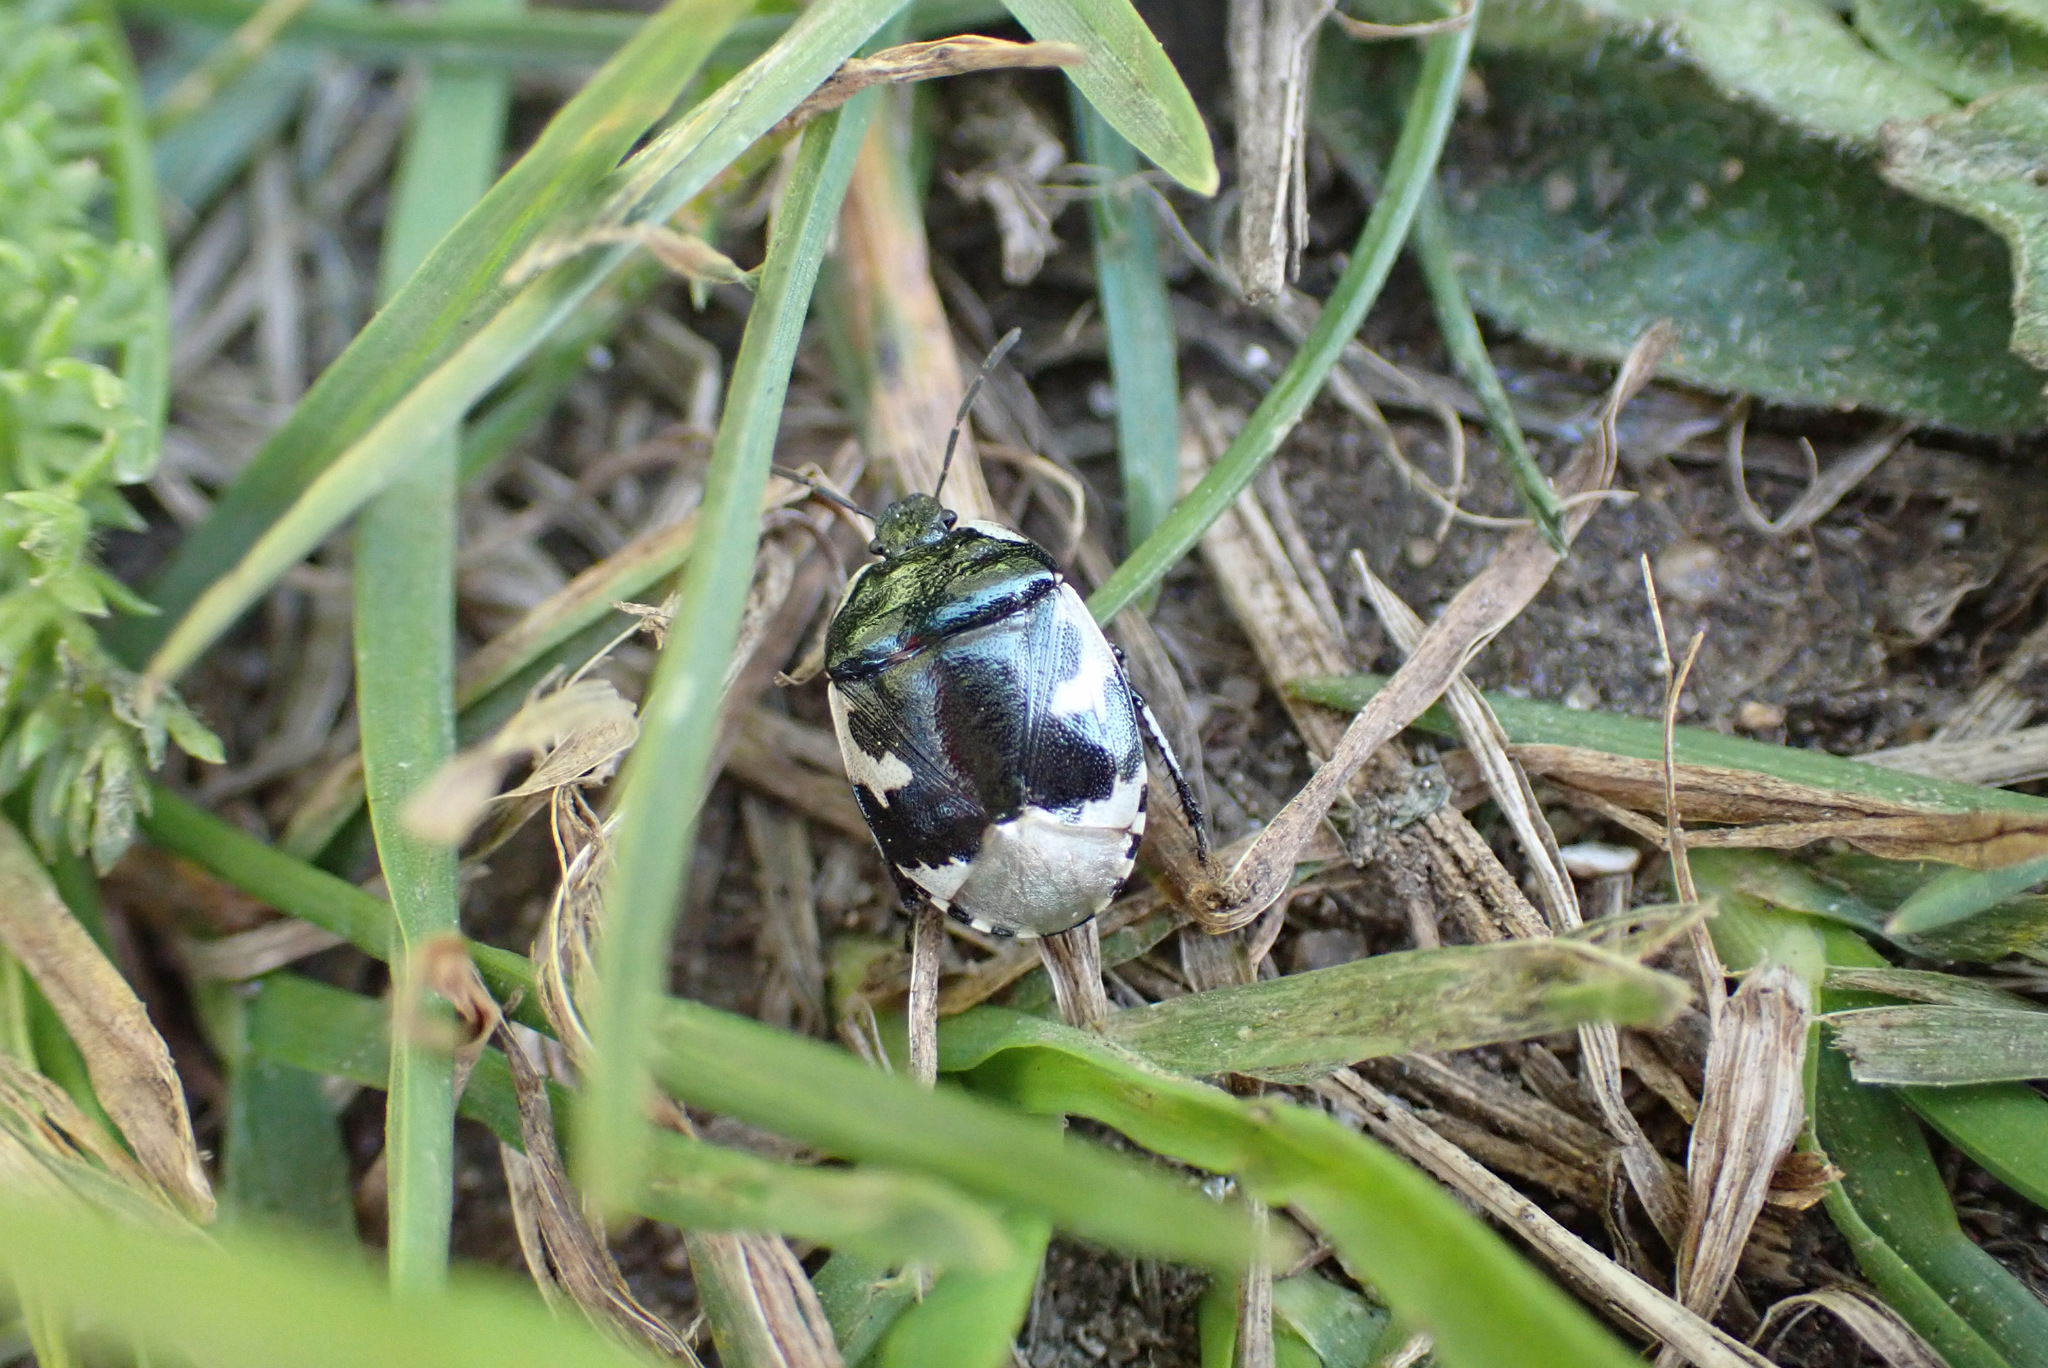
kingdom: Animalia
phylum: Arthropoda
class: Insecta
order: Hemiptera
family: Cydnidae
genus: Tritomegas
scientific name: Tritomegas bicolor
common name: Pied shieldbug
